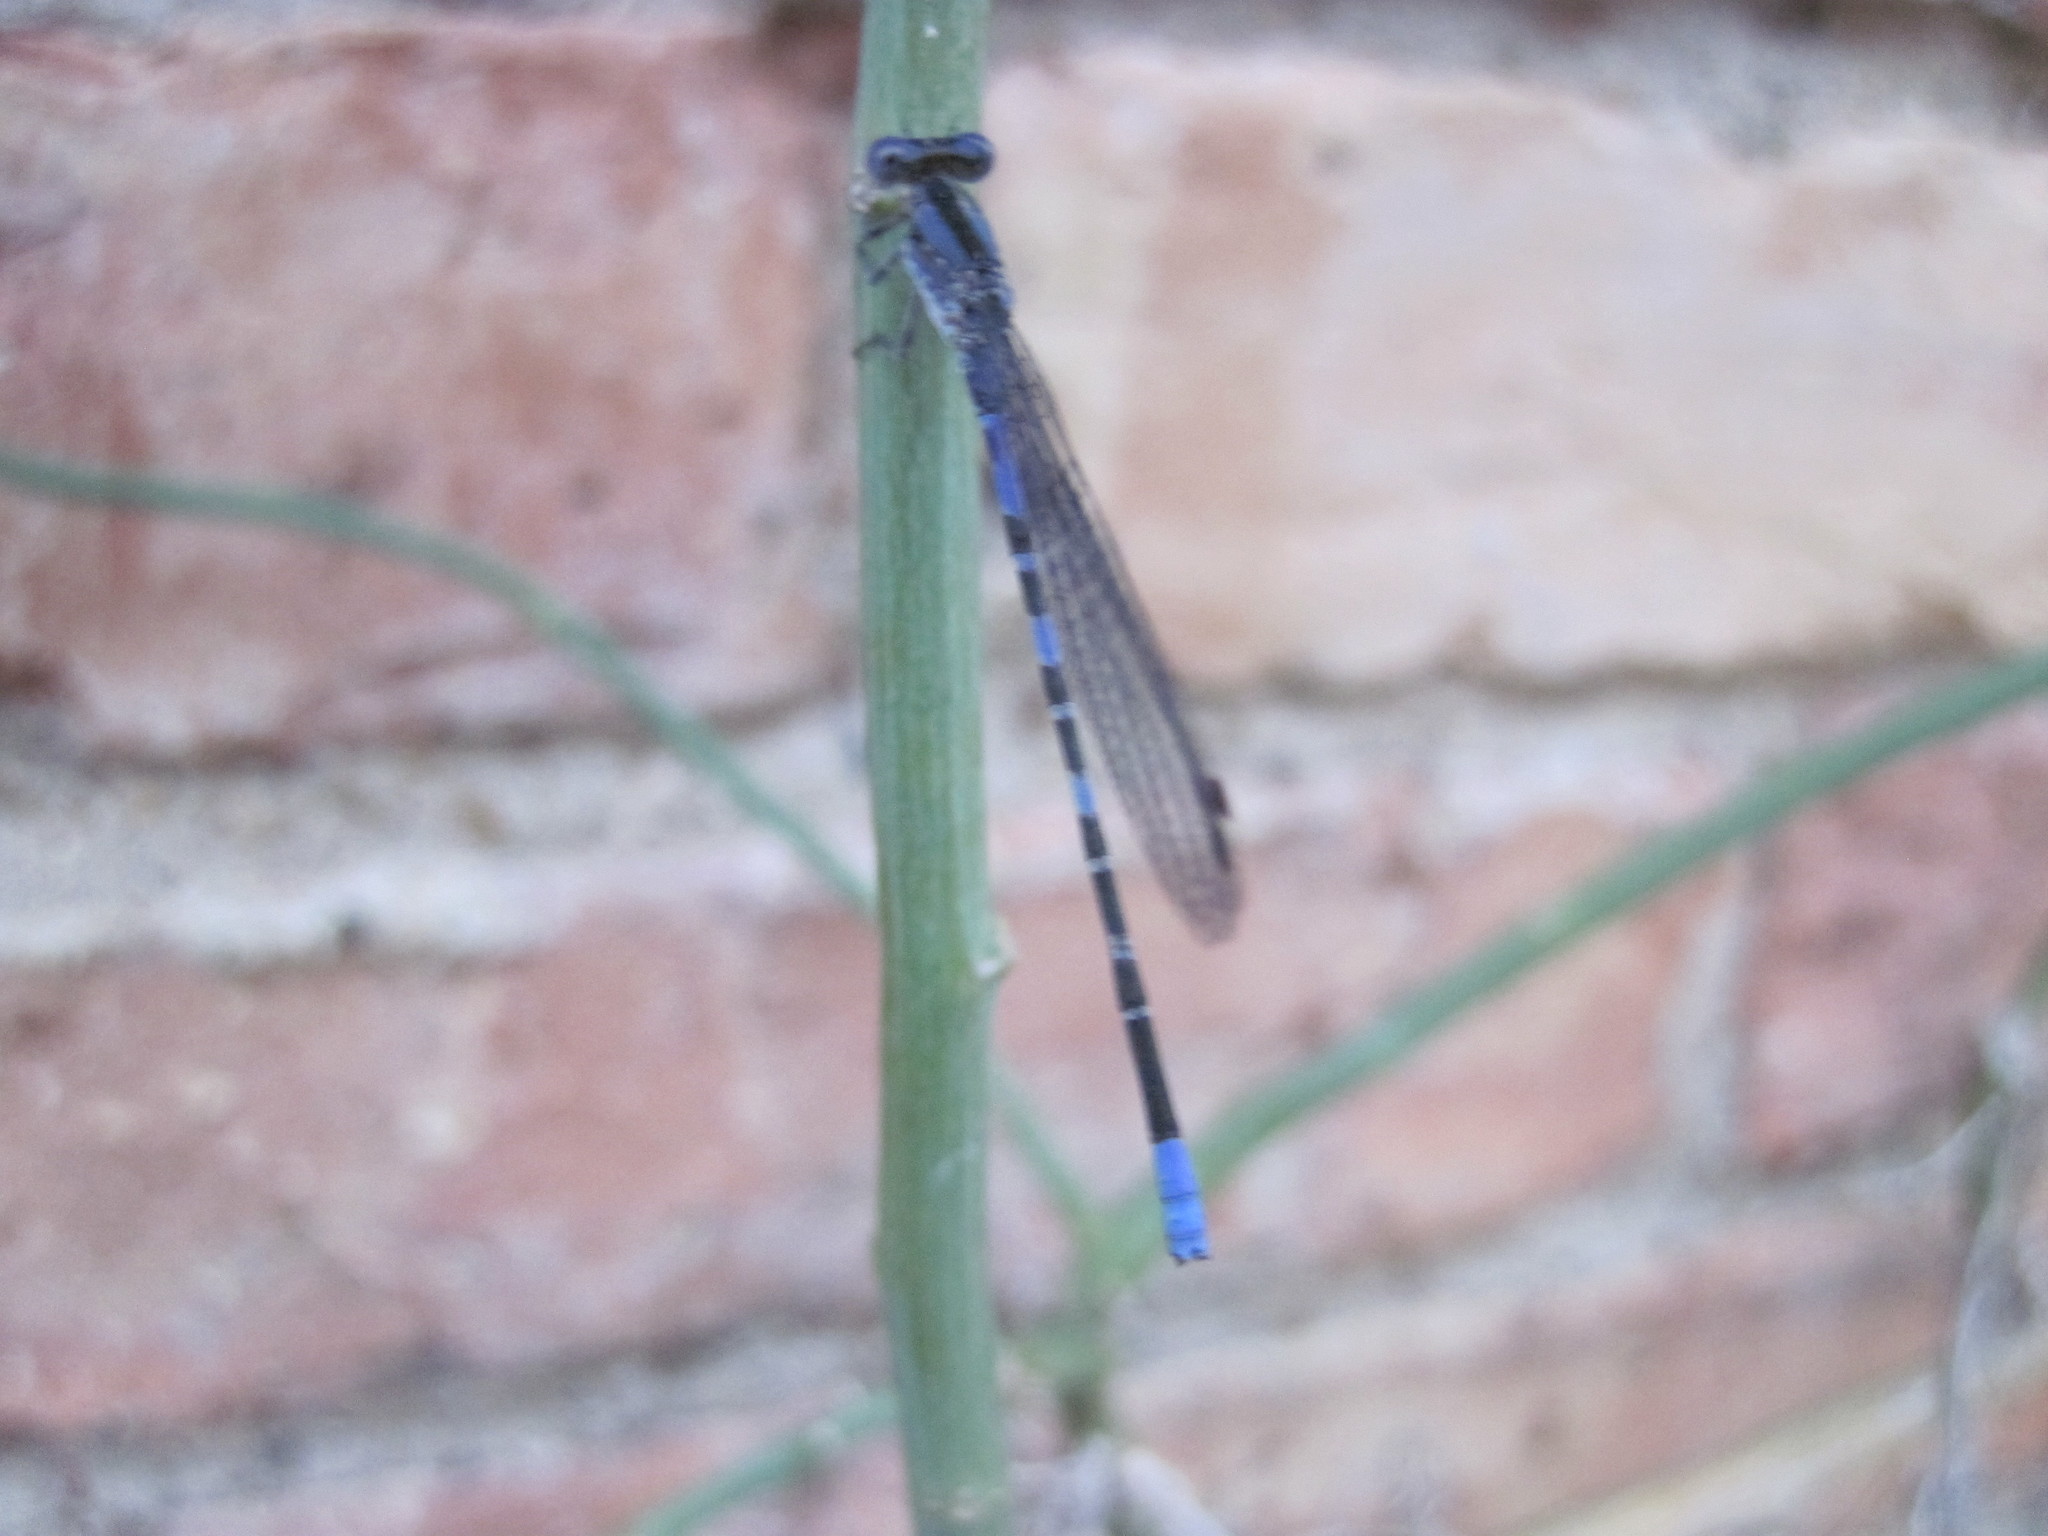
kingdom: Animalia
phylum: Arthropoda
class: Insecta
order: Odonata
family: Coenagrionidae
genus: Argia
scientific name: Argia immunda
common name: Kiowa dancer
